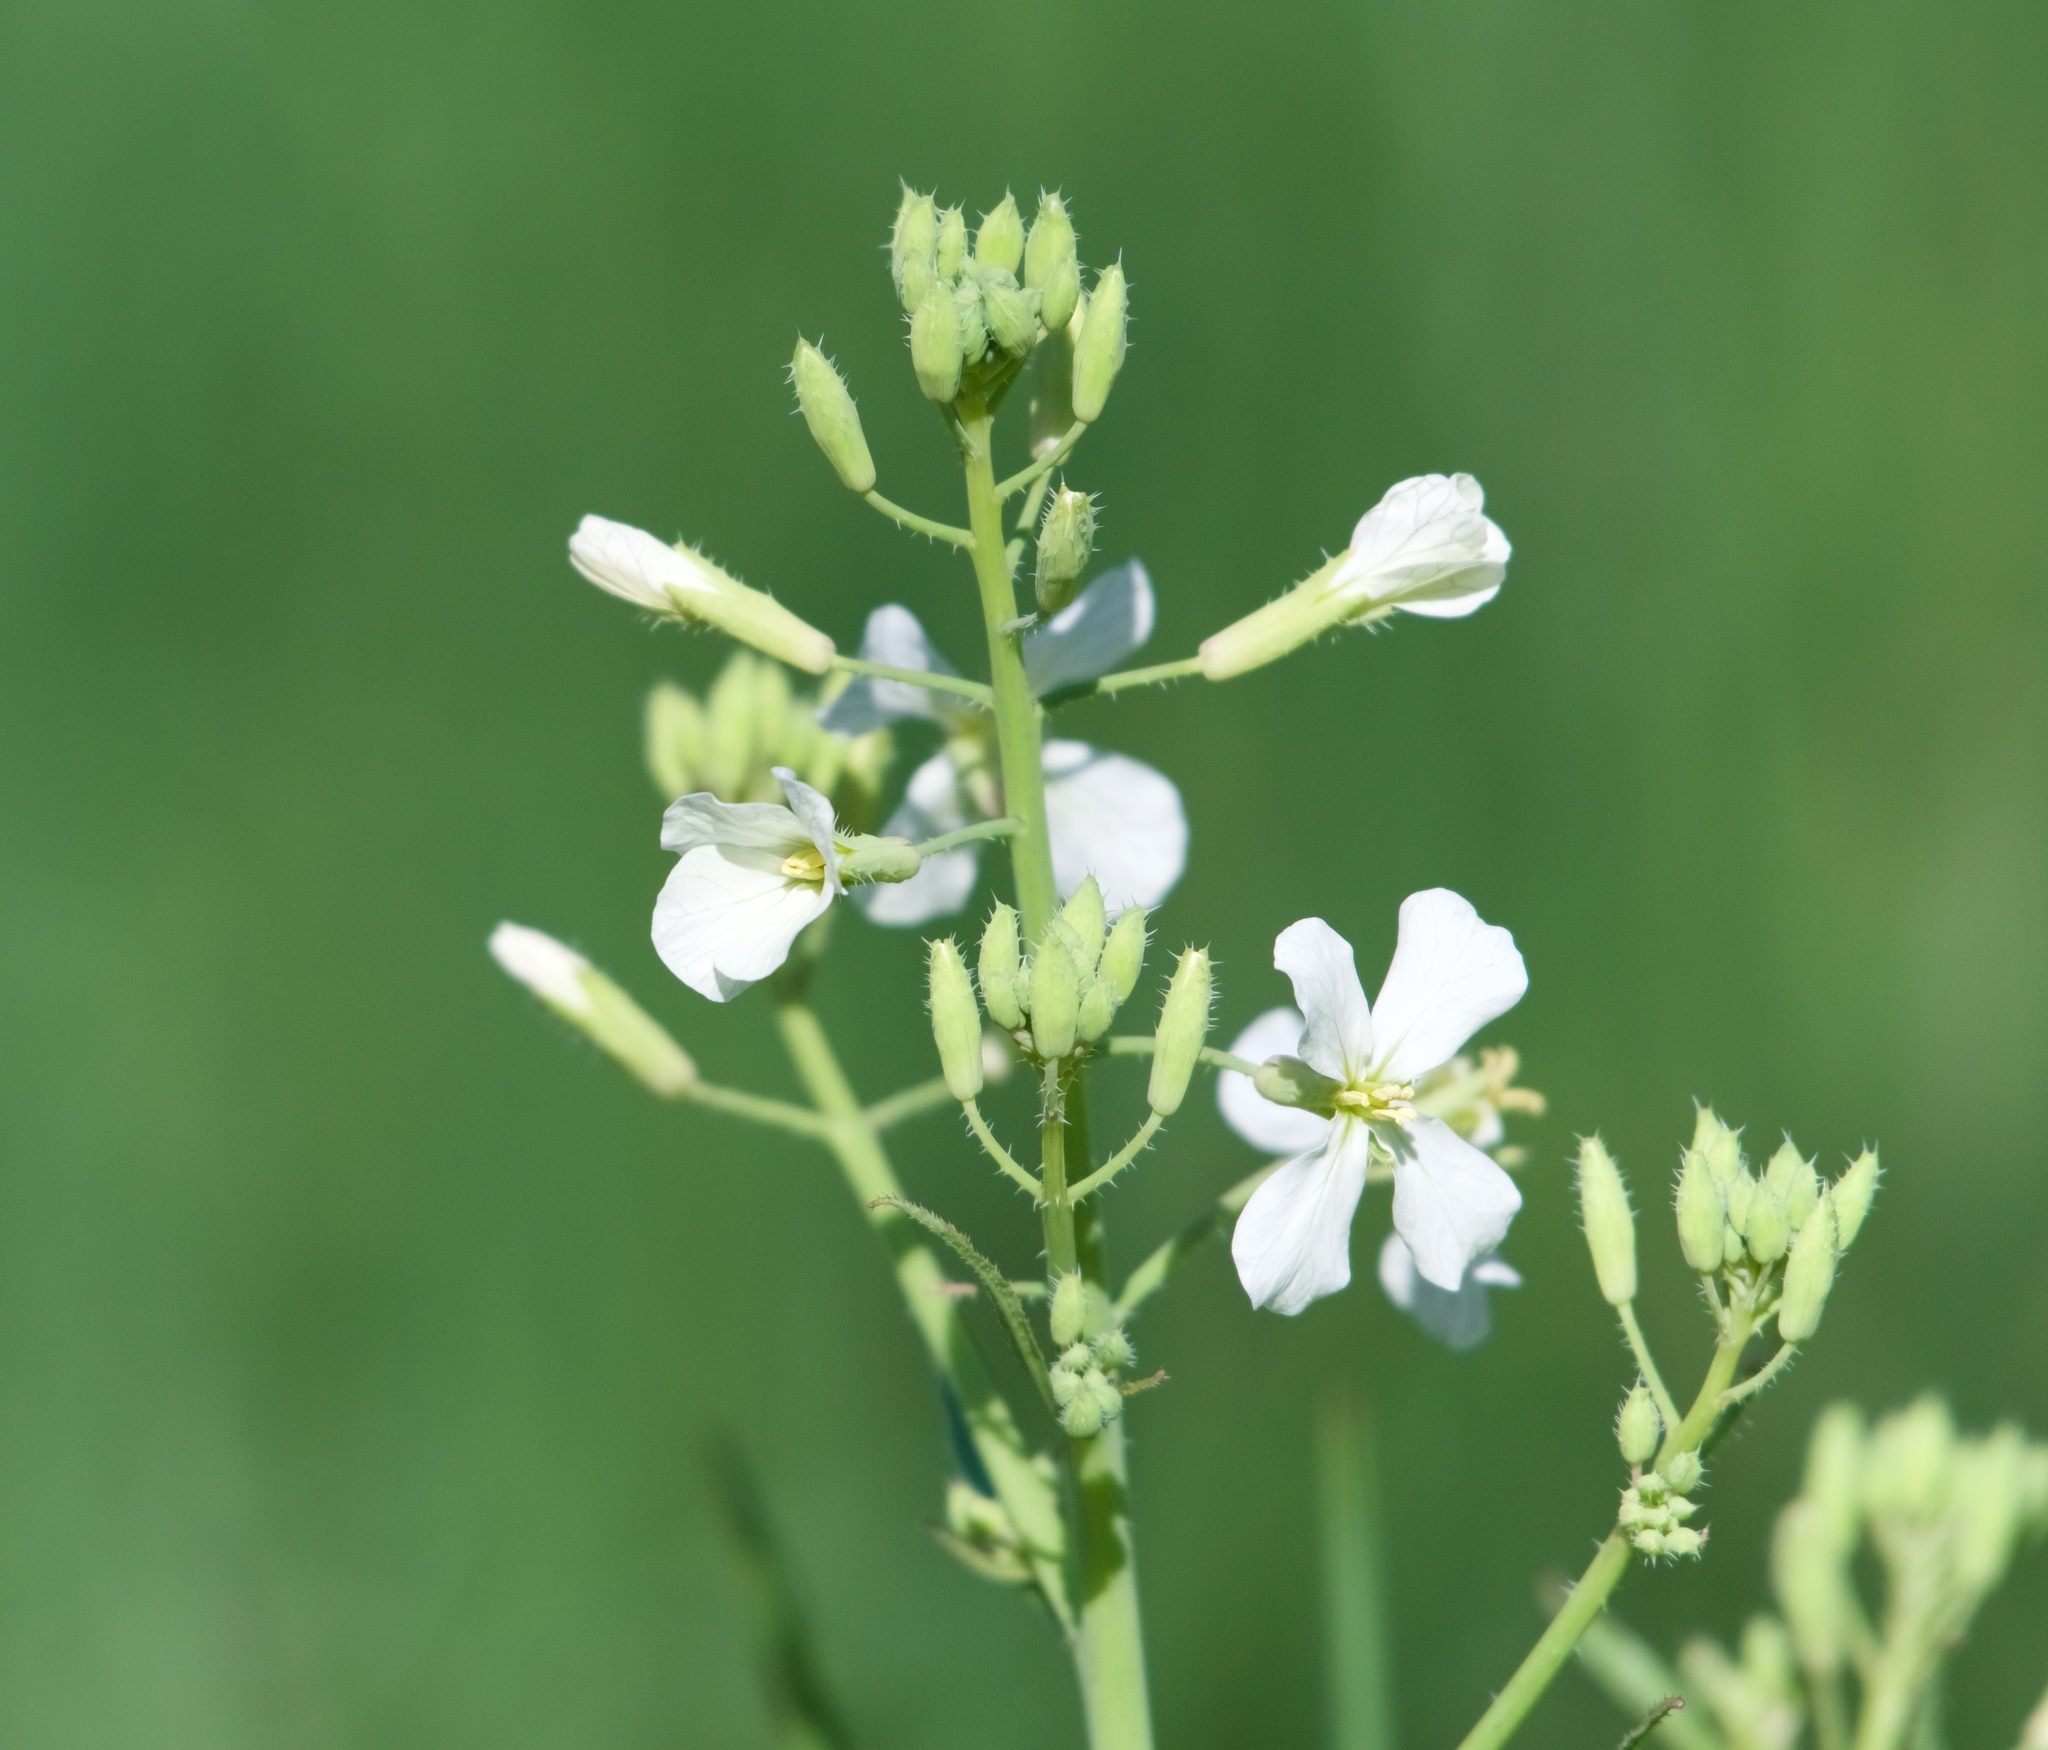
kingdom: Plantae
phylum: Tracheophyta
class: Magnoliopsida
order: Brassicales
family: Brassicaceae
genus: Raphanus
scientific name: Raphanus sativus
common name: Cultivated radish
